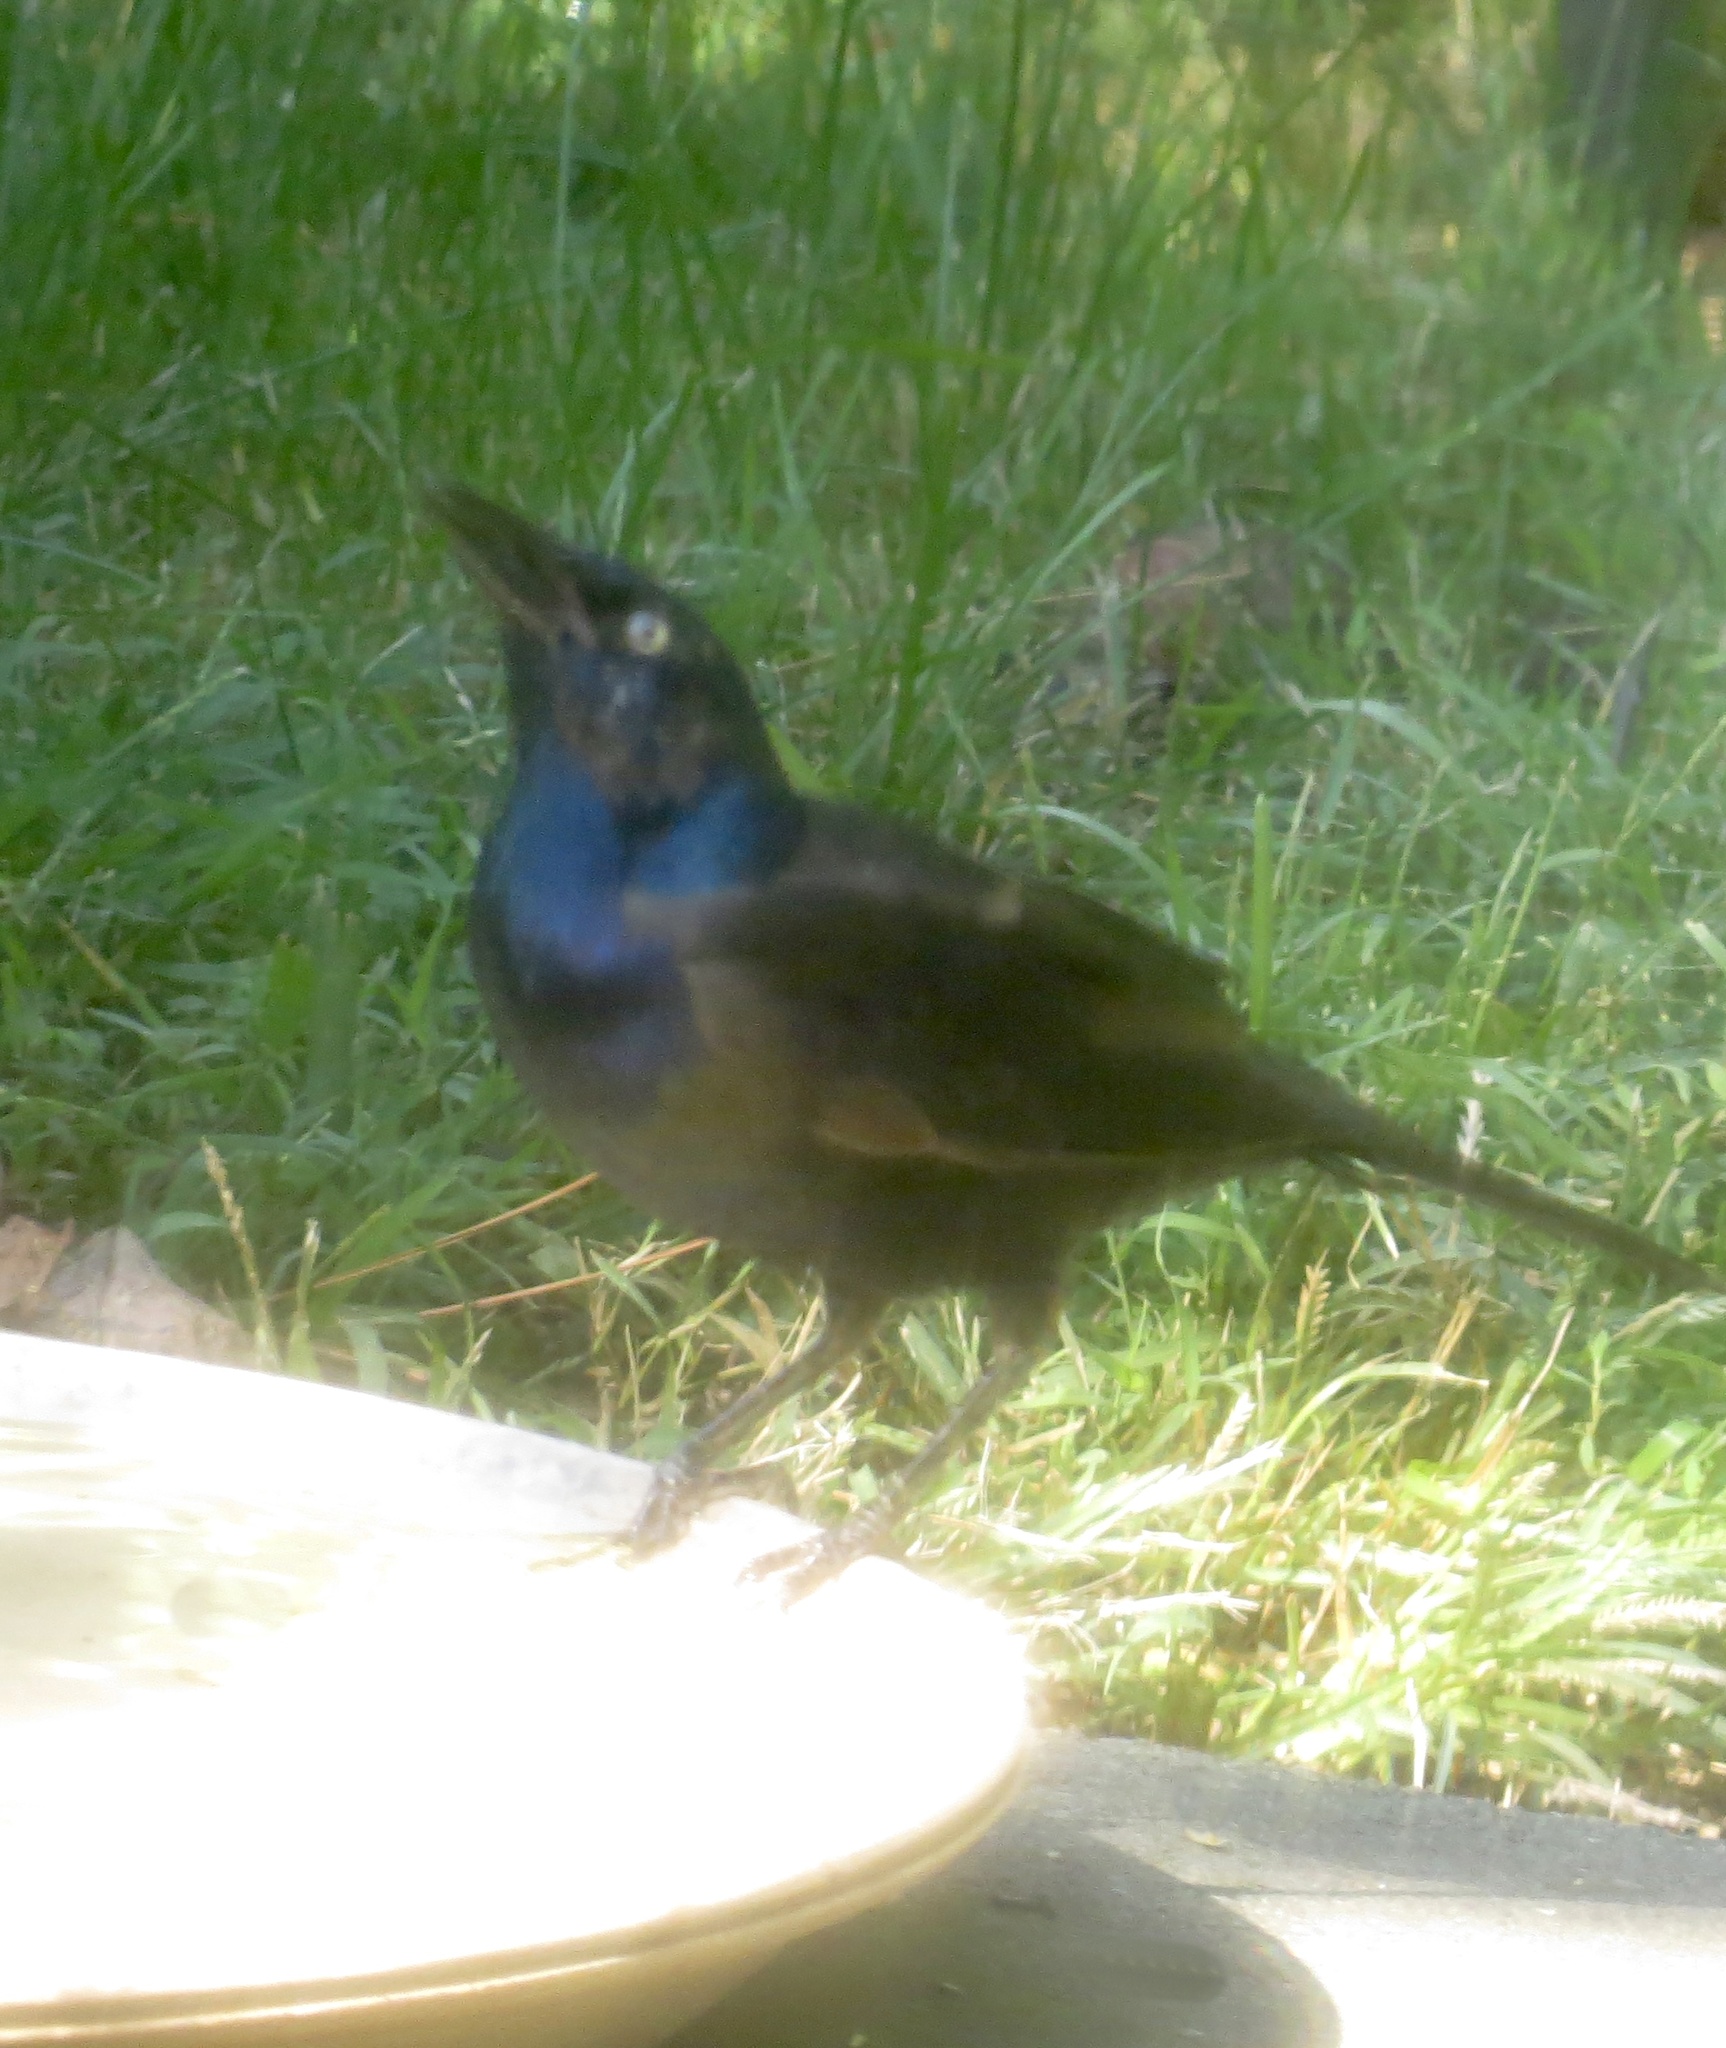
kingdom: Animalia
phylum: Chordata
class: Aves
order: Passeriformes
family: Icteridae
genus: Quiscalus
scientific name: Quiscalus quiscula
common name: Common grackle
